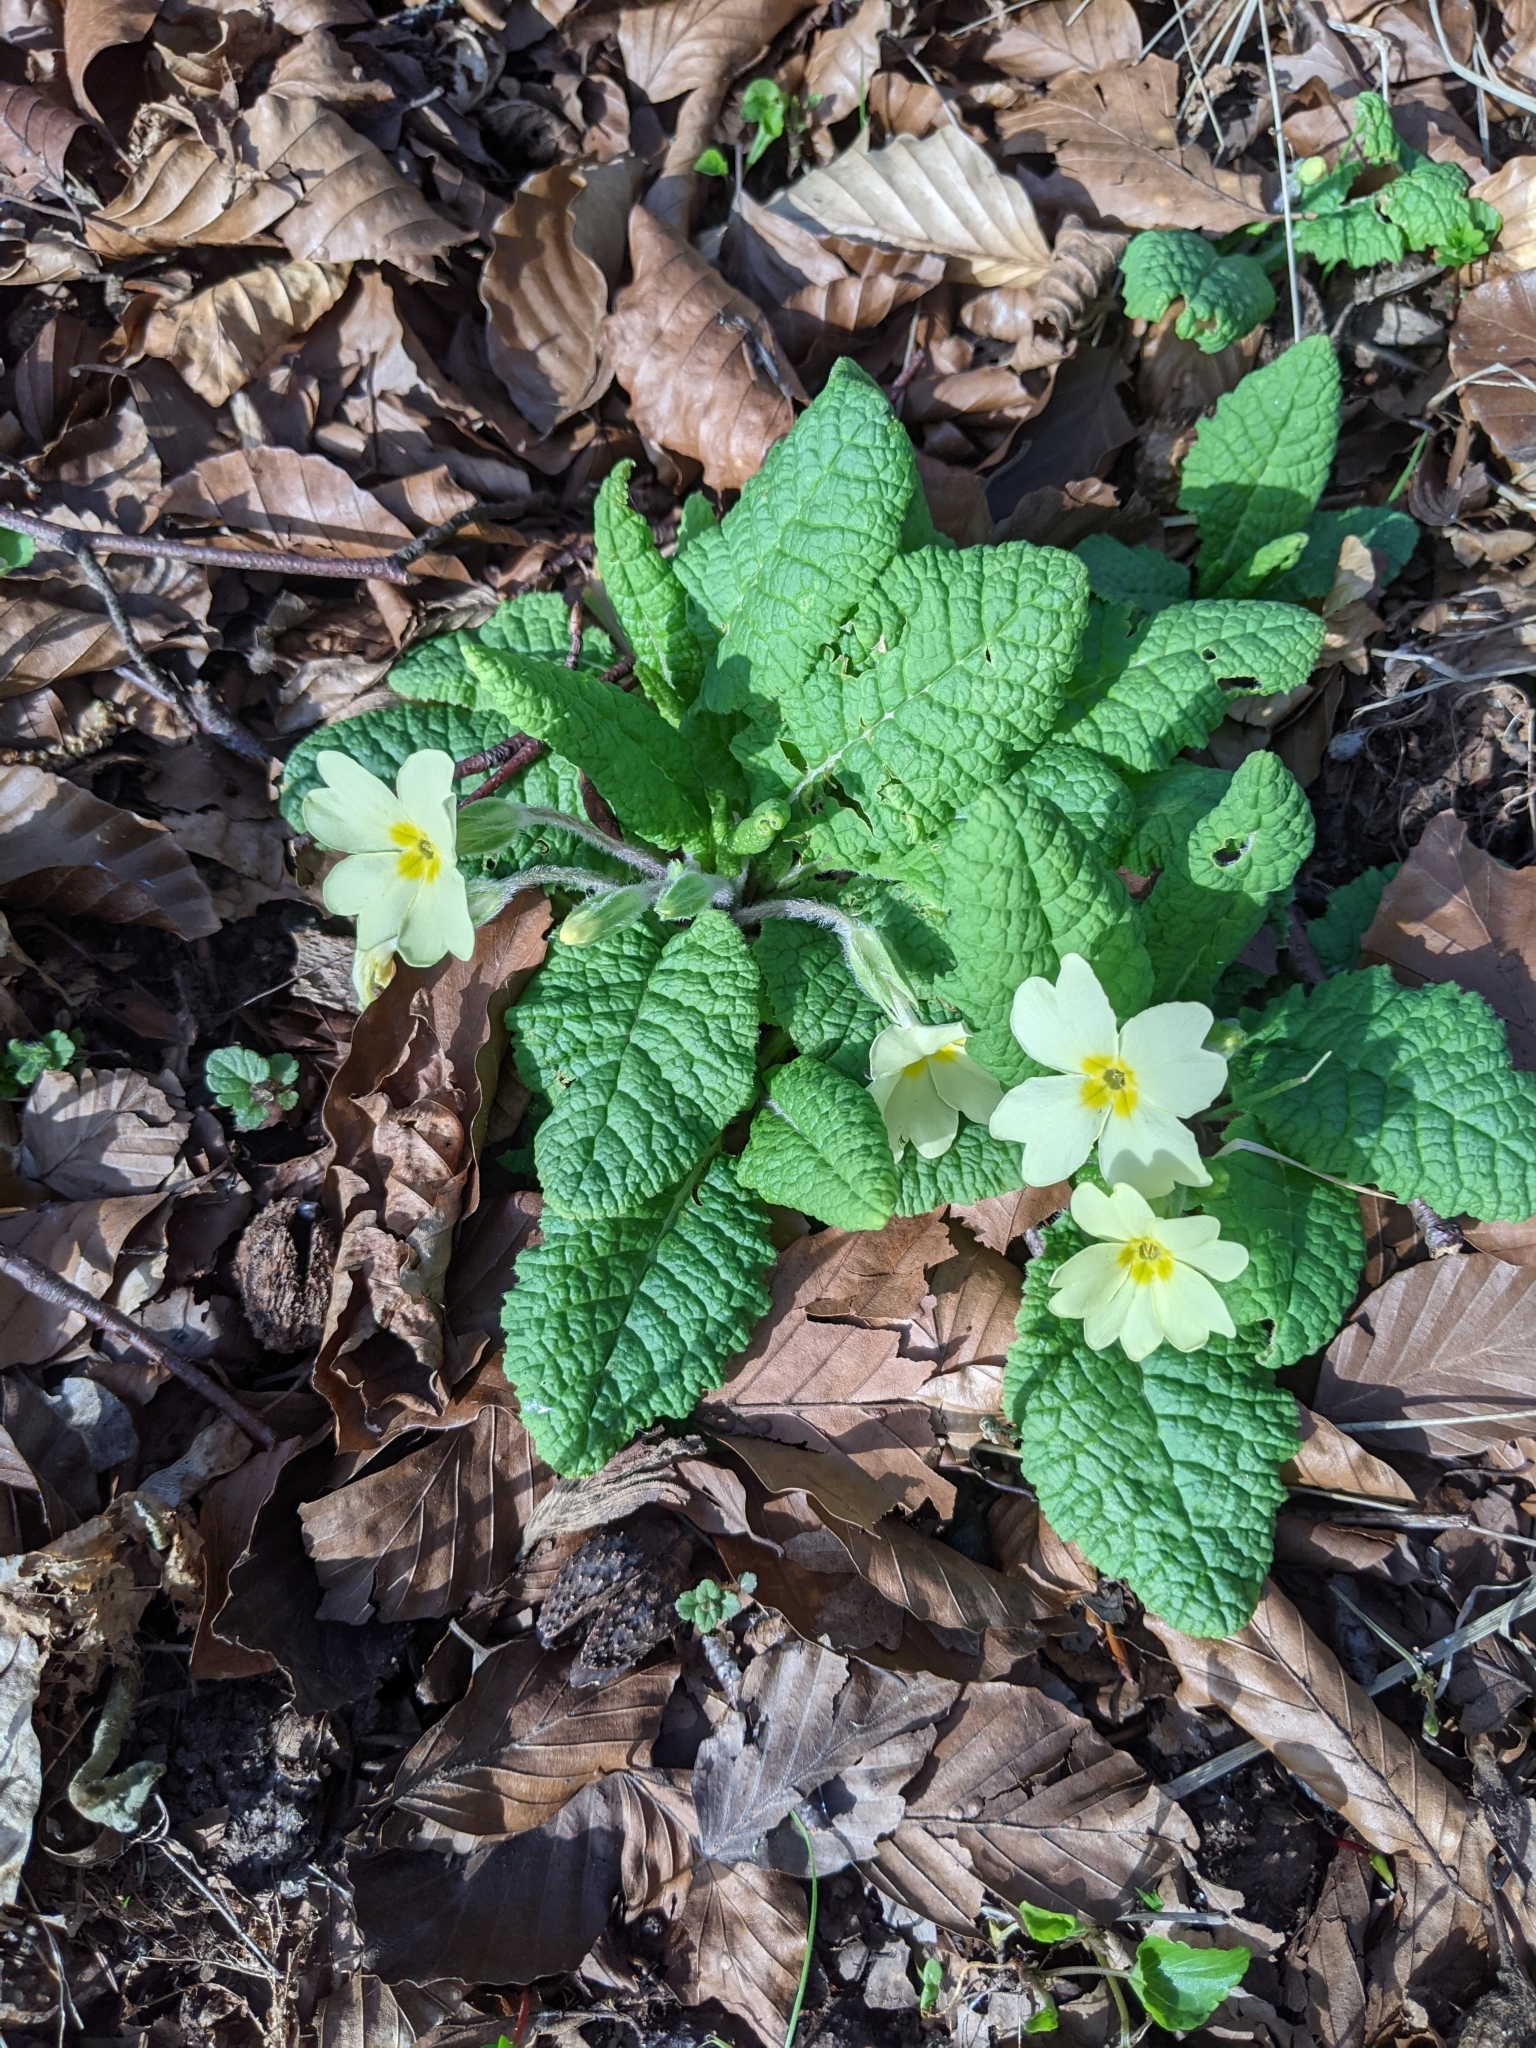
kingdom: Plantae
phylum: Tracheophyta
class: Magnoliopsida
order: Ericales
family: Primulaceae
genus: Primula
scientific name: Primula vulgaris
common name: Primrose
